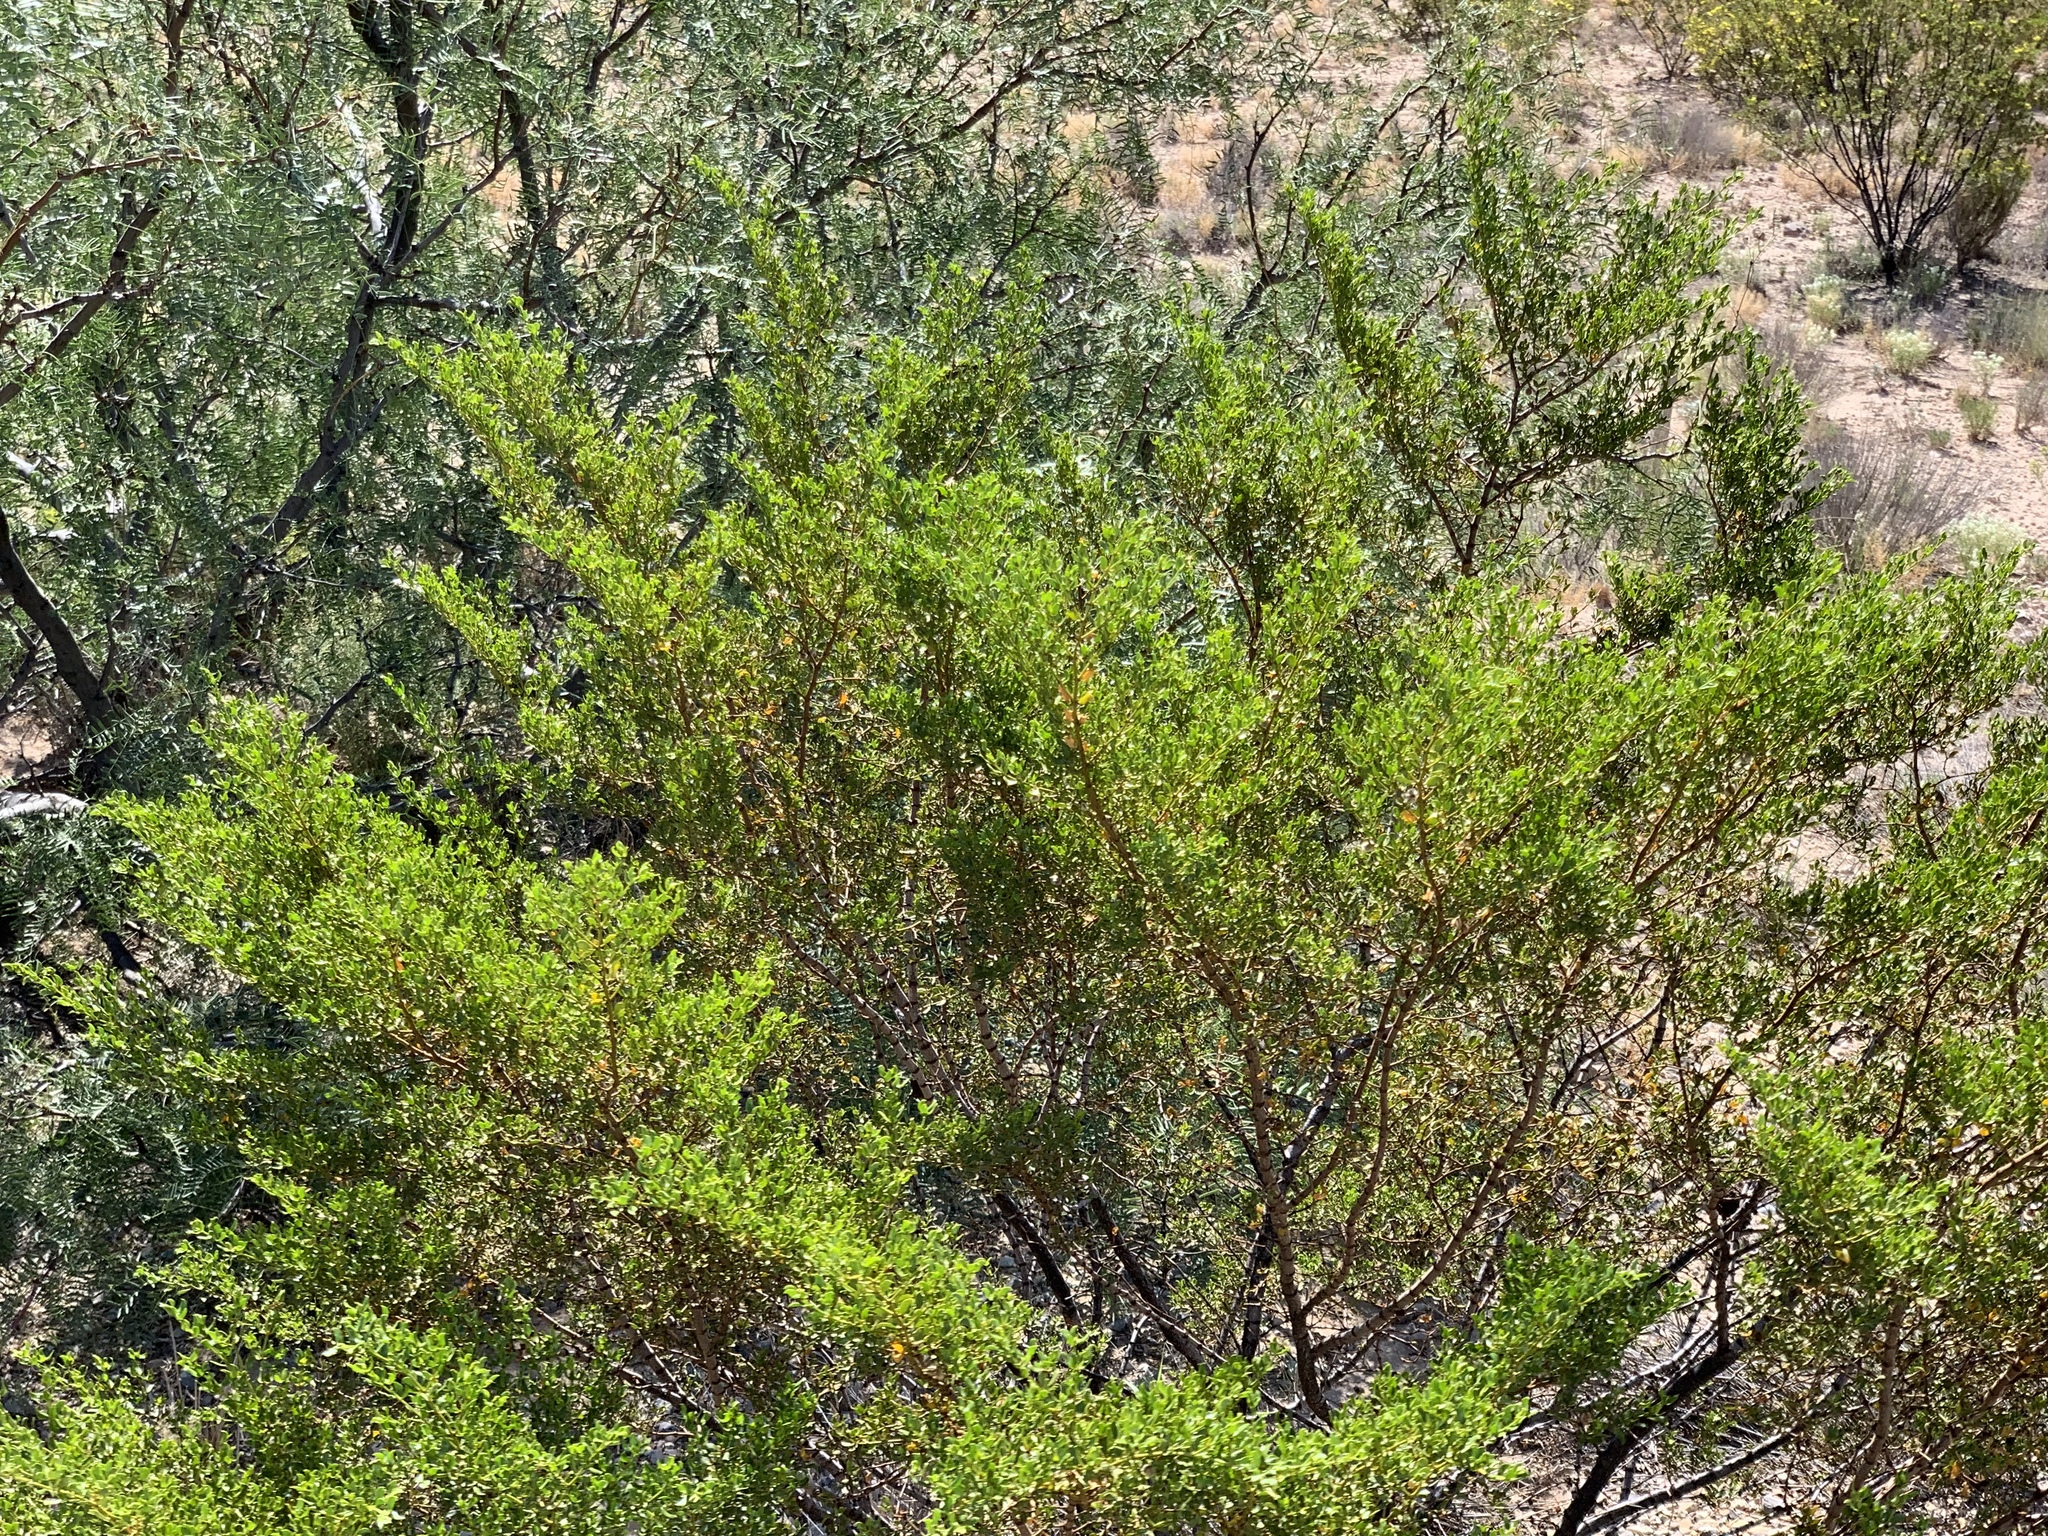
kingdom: Plantae
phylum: Tracheophyta
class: Magnoliopsida
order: Zygophyllales
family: Zygophyllaceae
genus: Larrea
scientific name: Larrea tridentata
